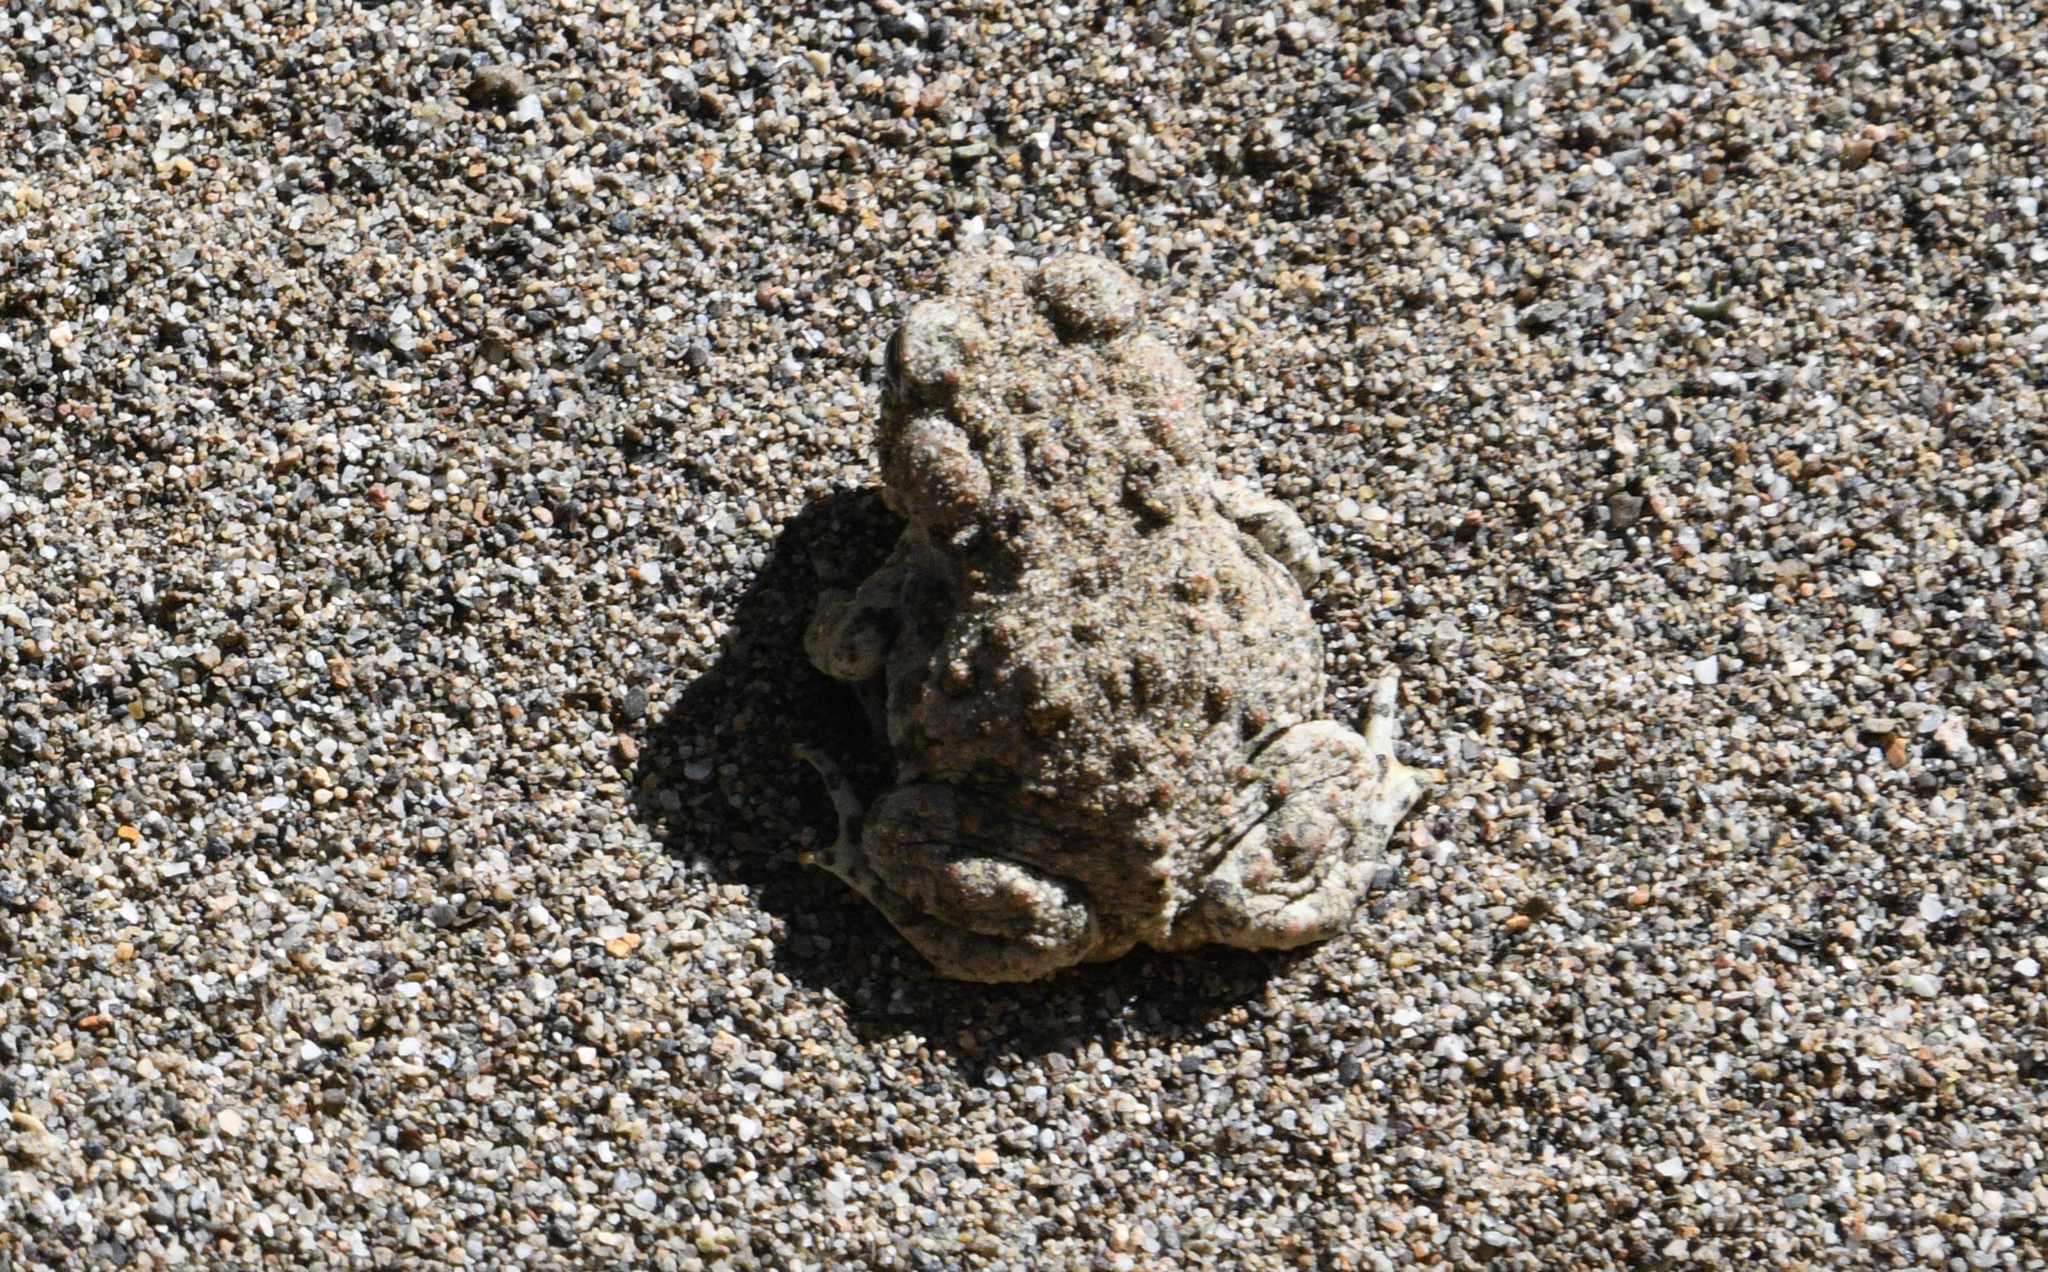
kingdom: Animalia
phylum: Chordata
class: Amphibia
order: Anura
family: Bufonidae
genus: Anaxyrus
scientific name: Anaxyrus boreas
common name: Western toad
